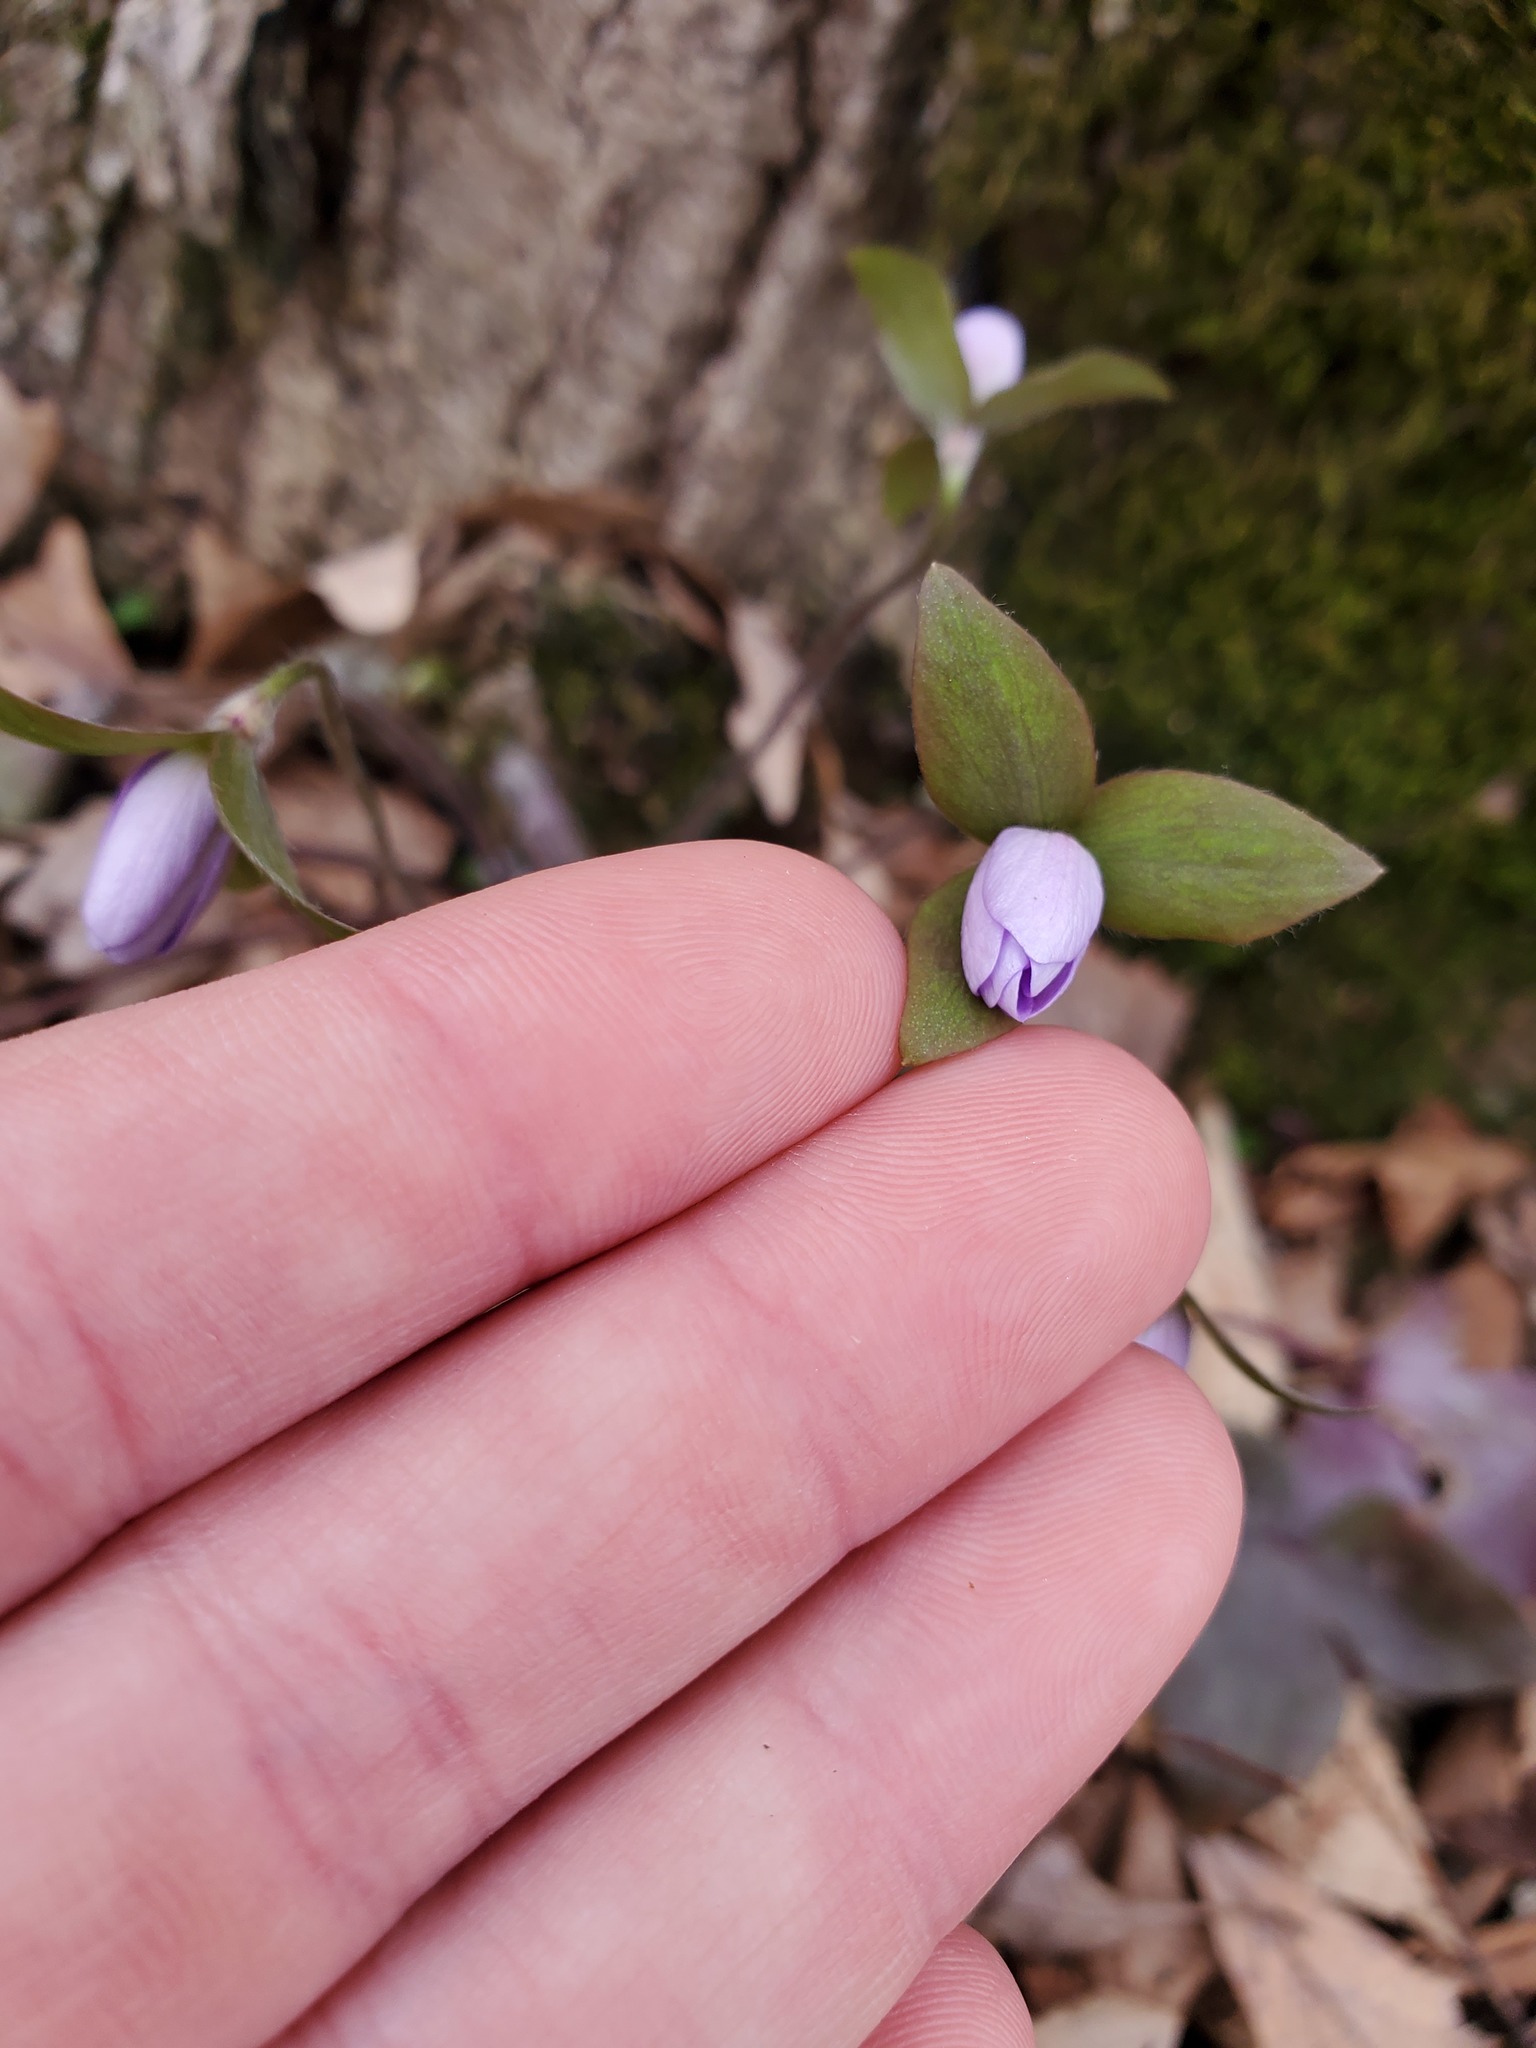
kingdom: Plantae
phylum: Tracheophyta
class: Magnoliopsida
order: Ranunculales
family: Ranunculaceae
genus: Hepatica
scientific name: Hepatica acutiloba
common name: Sharp-lobed hepatica
